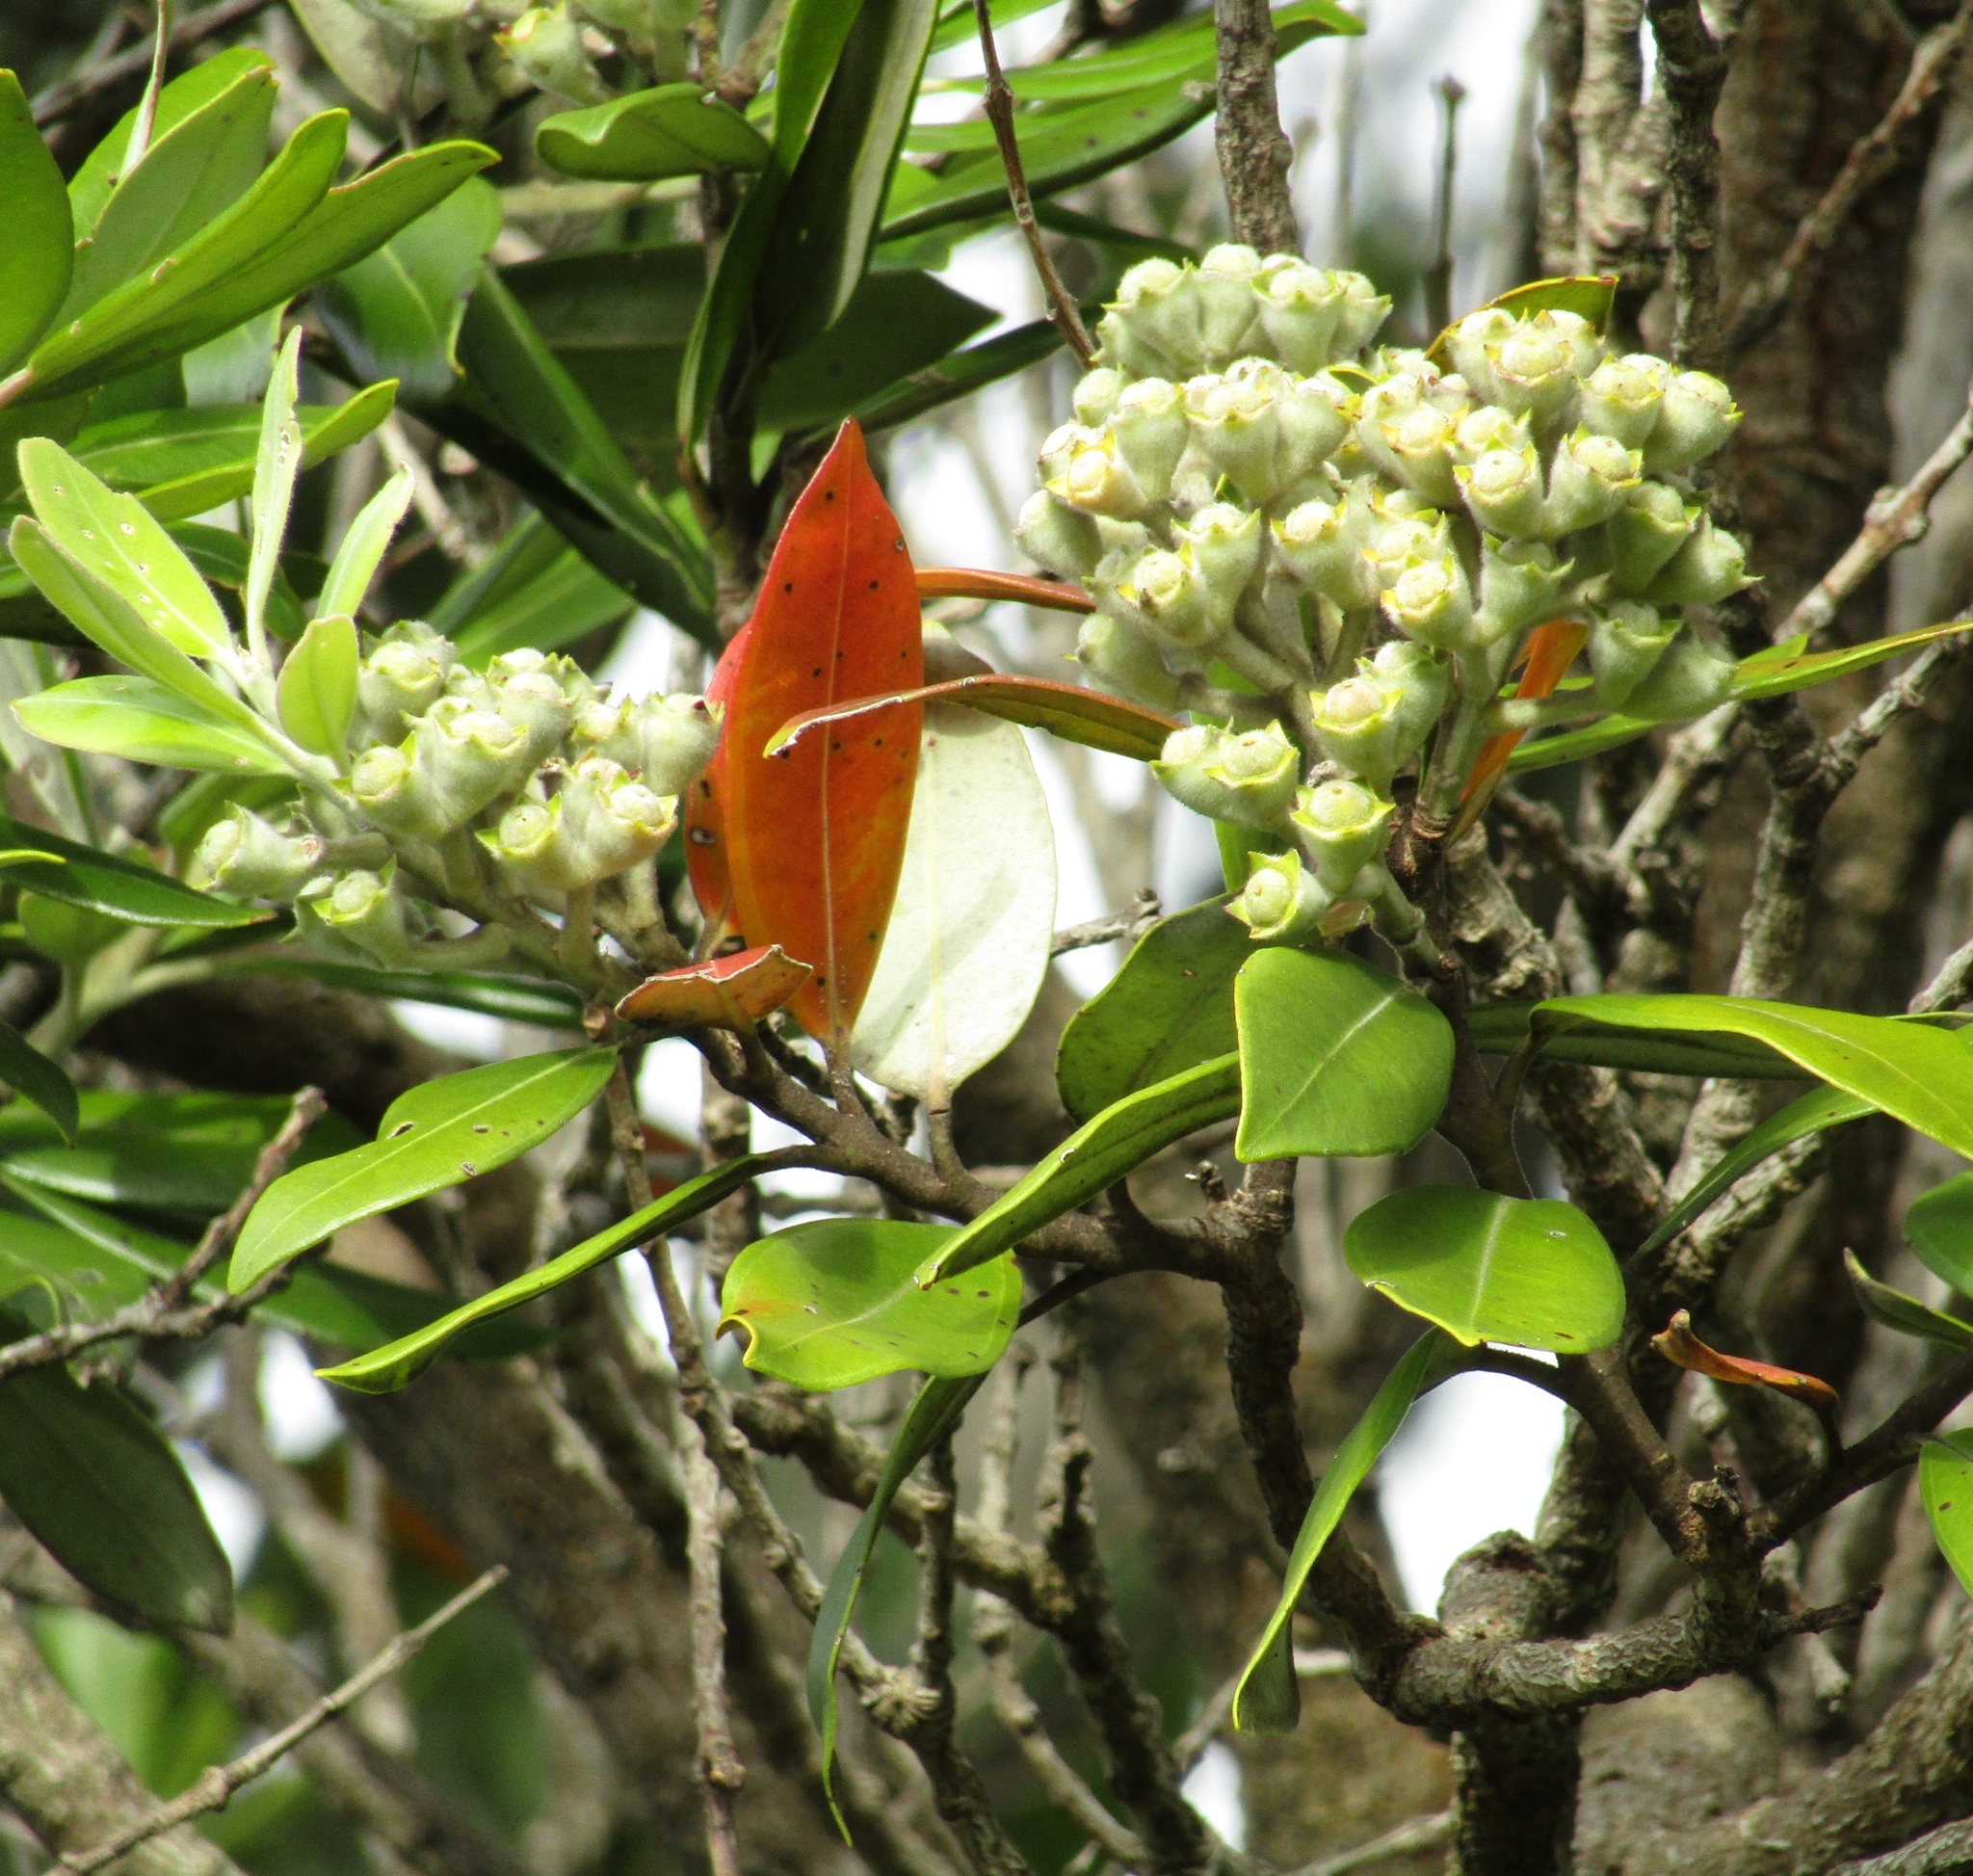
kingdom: Plantae
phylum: Tracheophyta
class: Magnoliopsida
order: Myrtales
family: Myrtaceae
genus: Metrosideros
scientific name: Metrosideros excelsa
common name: New zealand christmastree
